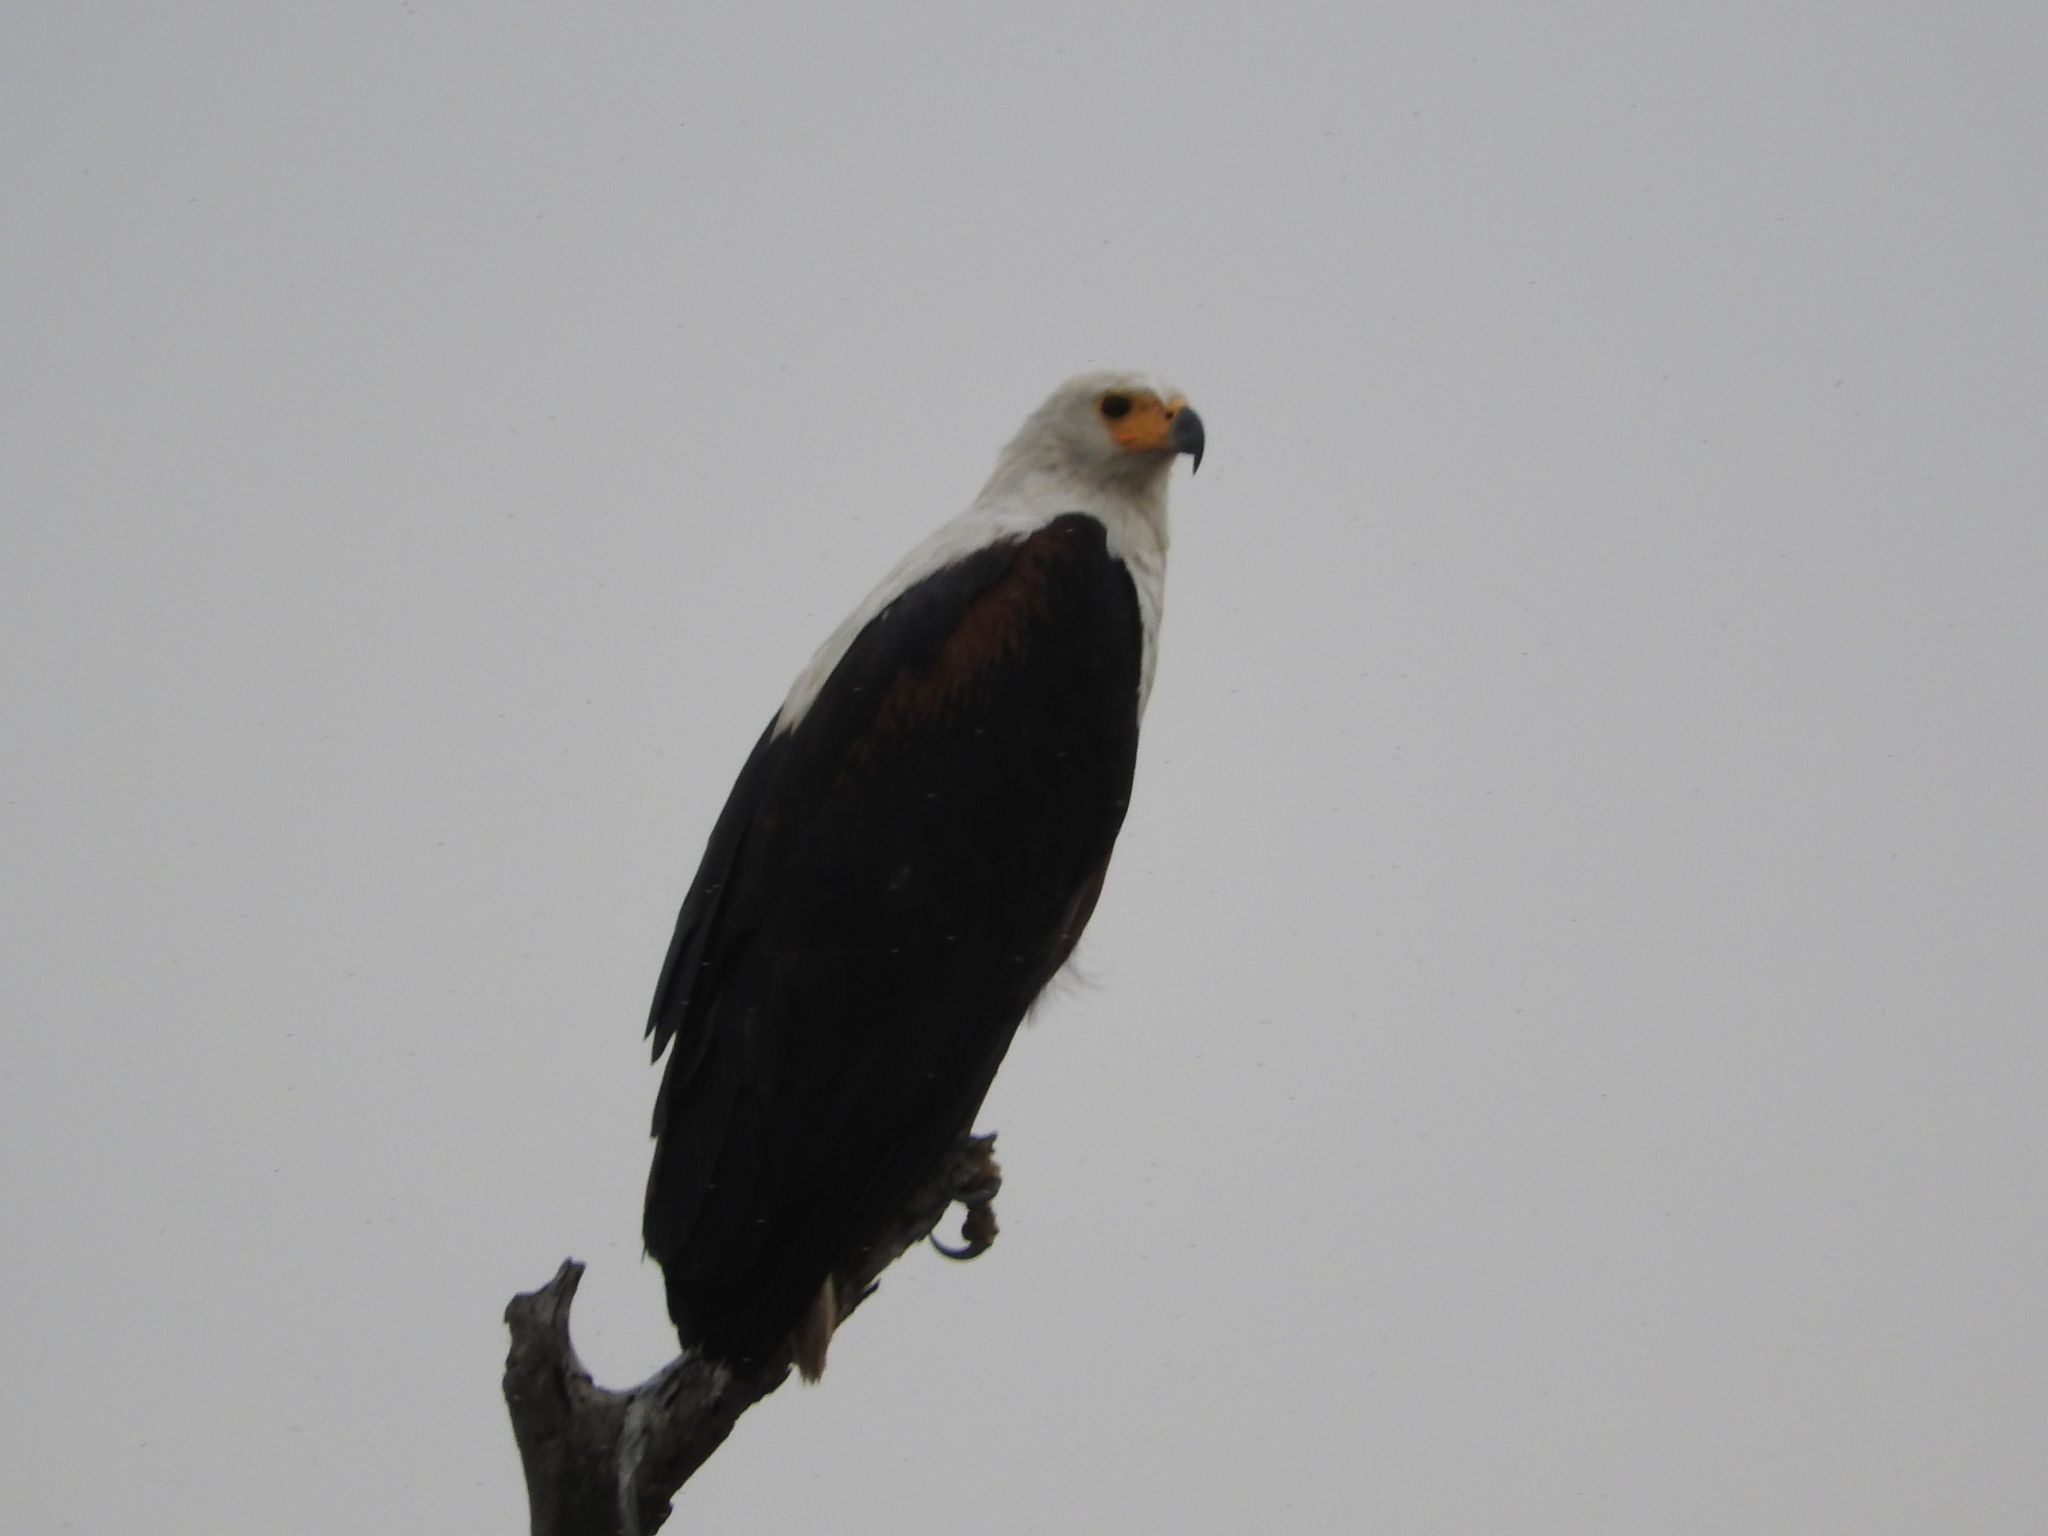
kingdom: Animalia
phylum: Chordata
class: Aves
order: Accipitriformes
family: Accipitridae
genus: Haliaeetus
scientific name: Haliaeetus vocifer
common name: African fish eagle
